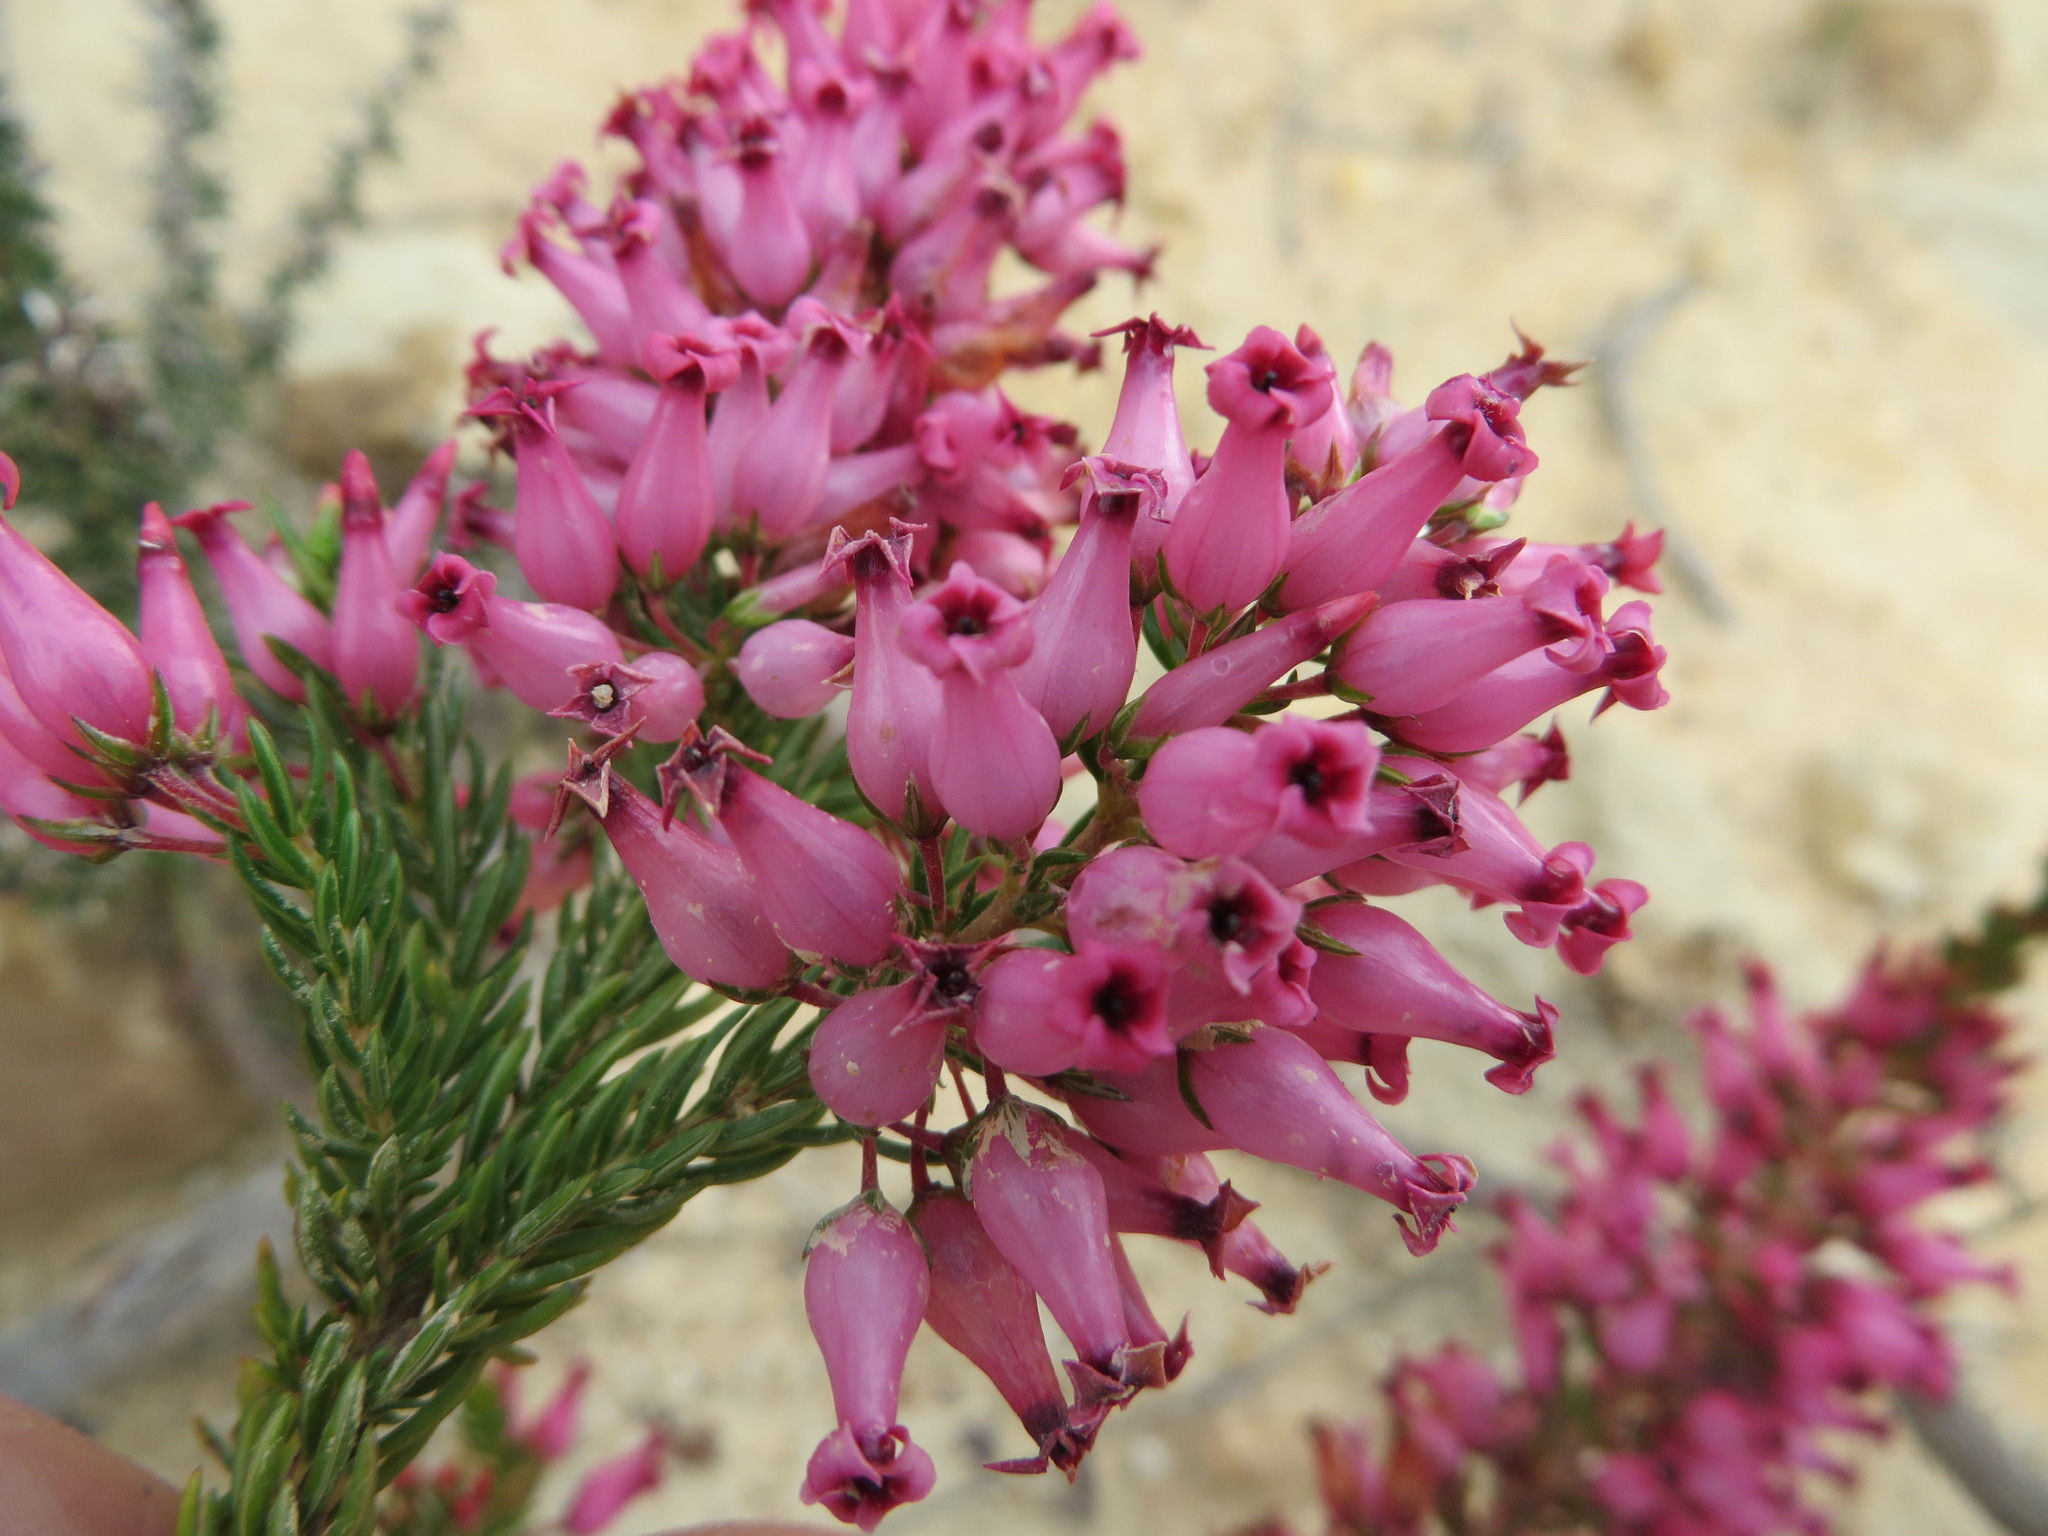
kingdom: Plantae
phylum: Tracheophyta
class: Magnoliopsida
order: Ericales
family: Ericaceae
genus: Erica
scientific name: Erica
